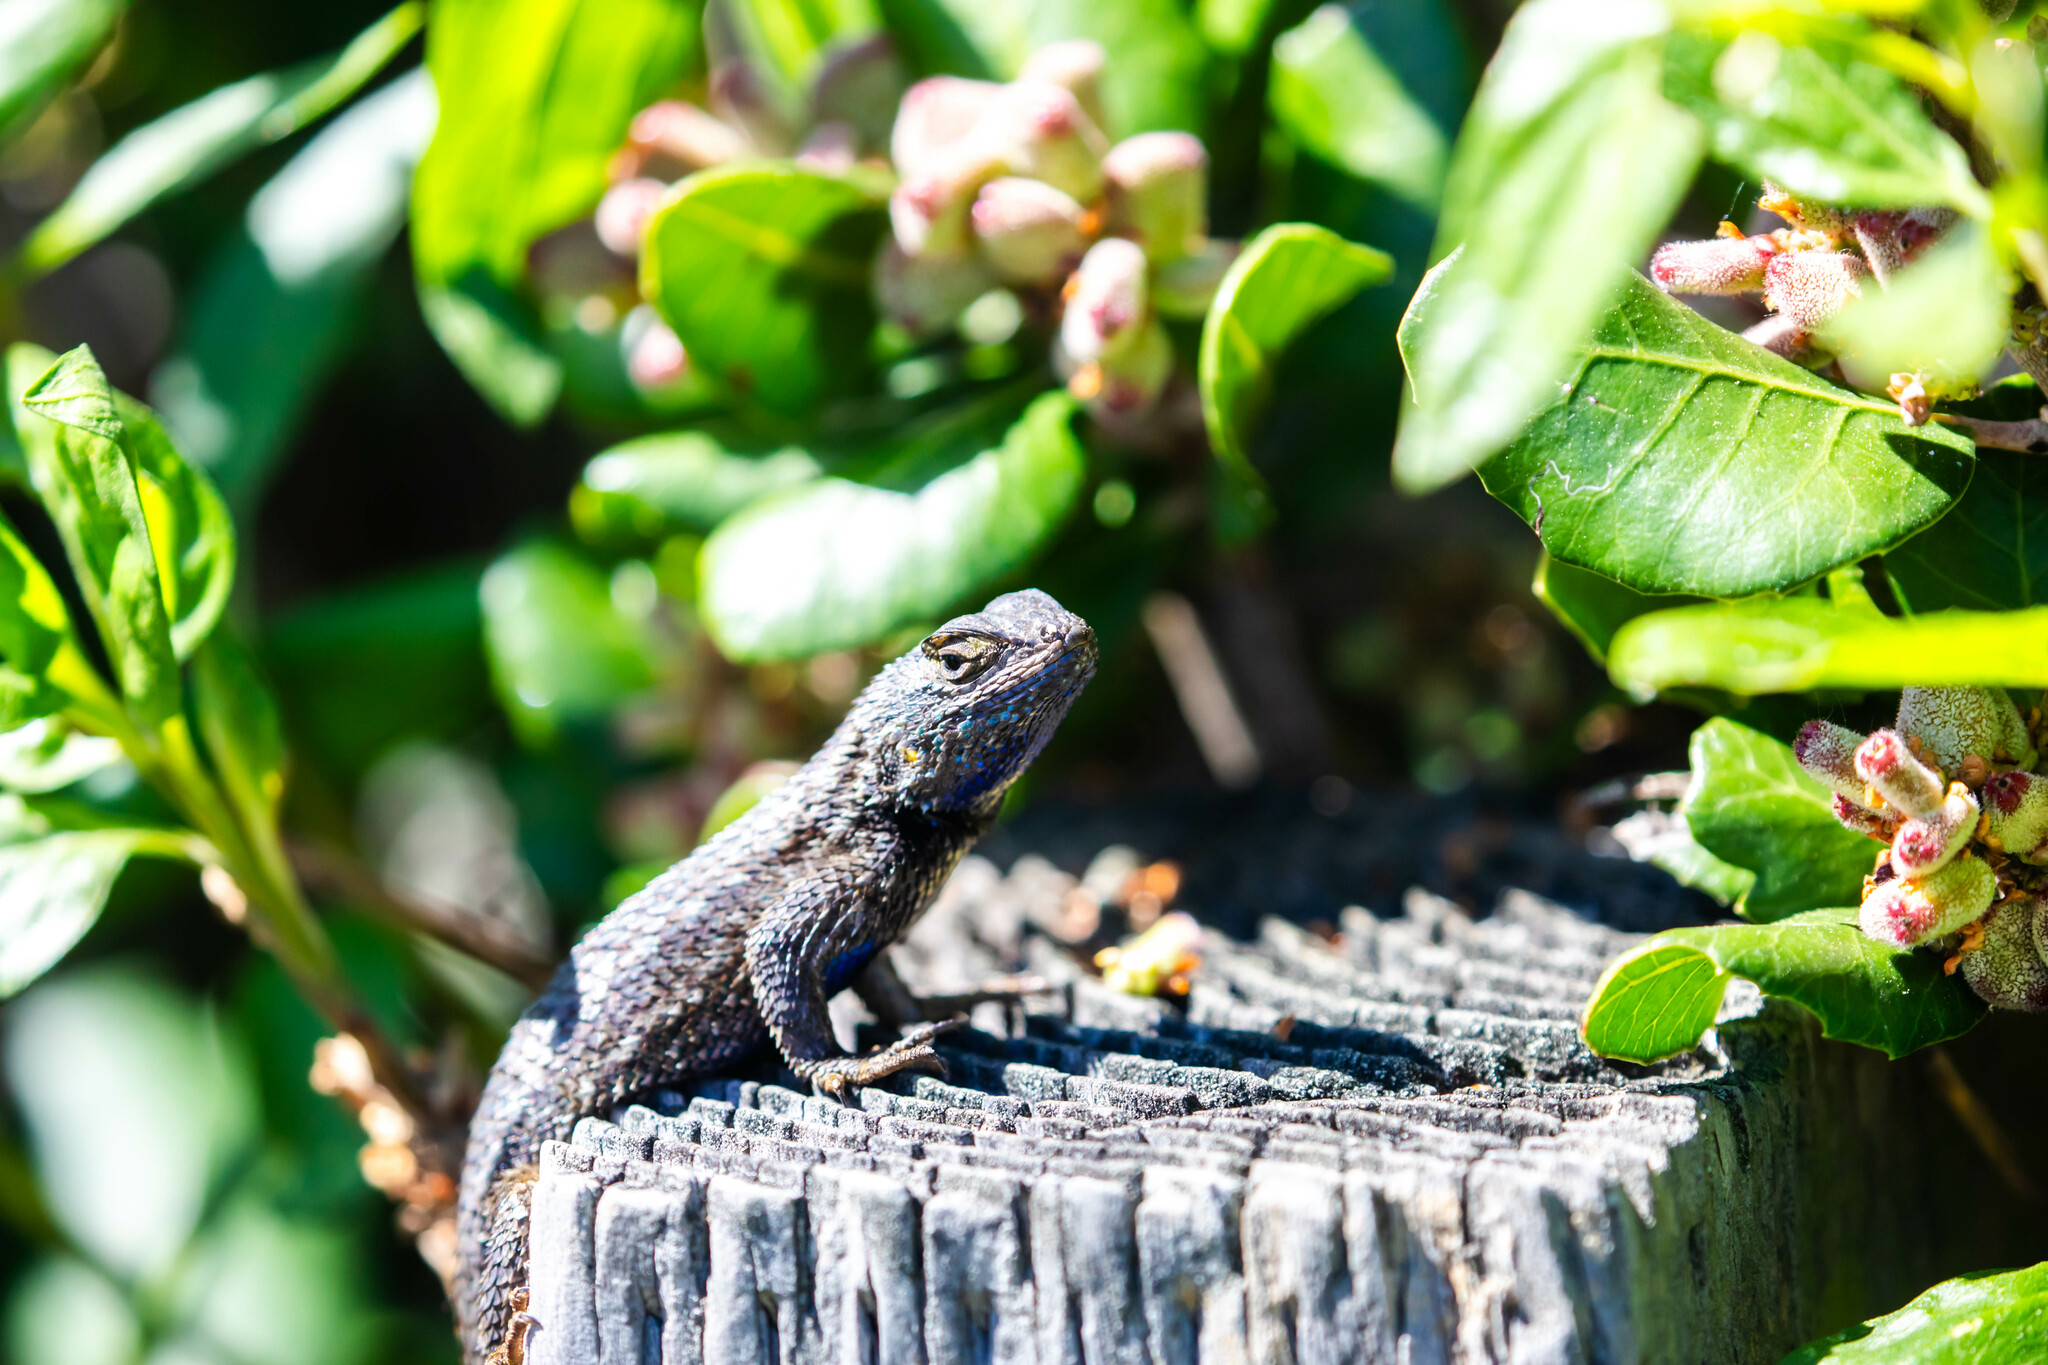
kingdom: Animalia
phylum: Chordata
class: Squamata
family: Phrynosomatidae
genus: Sceloporus
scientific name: Sceloporus occidentalis
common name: Western fence lizard
